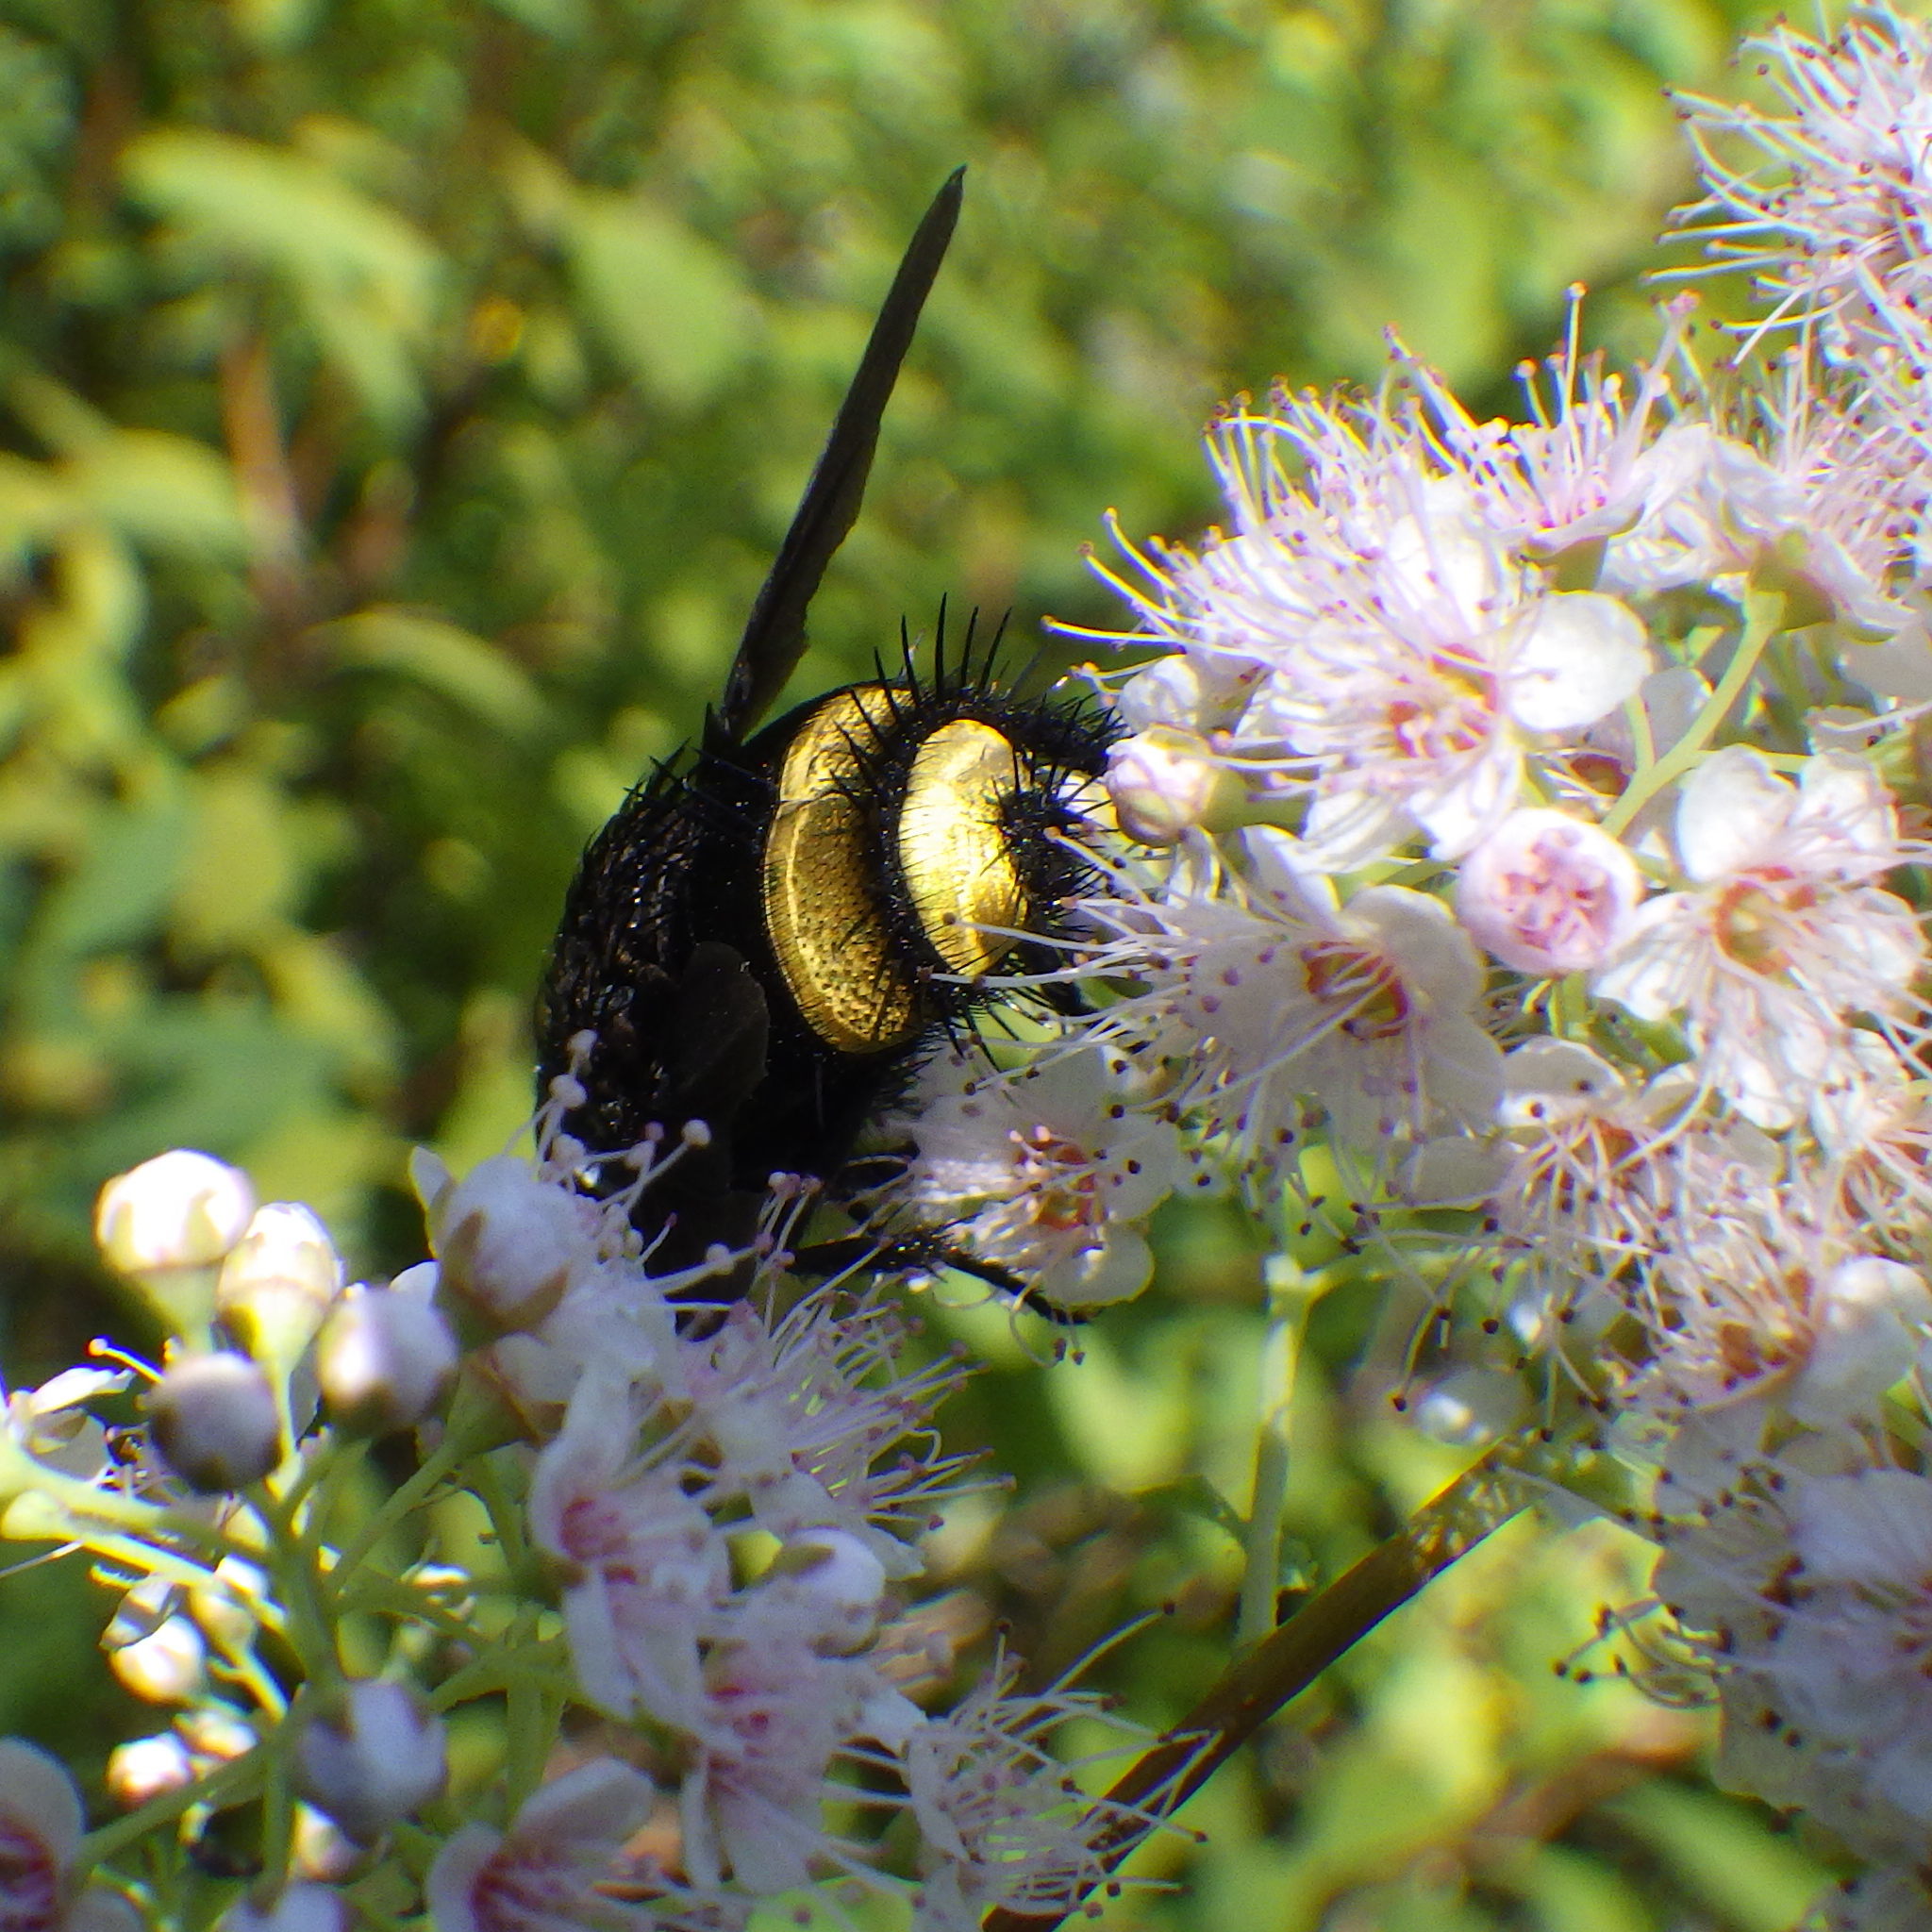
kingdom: Animalia
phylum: Arthropoda
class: Insecta
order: Diptera
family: Tachinidae
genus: Belvosia
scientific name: Belvosia borealis
